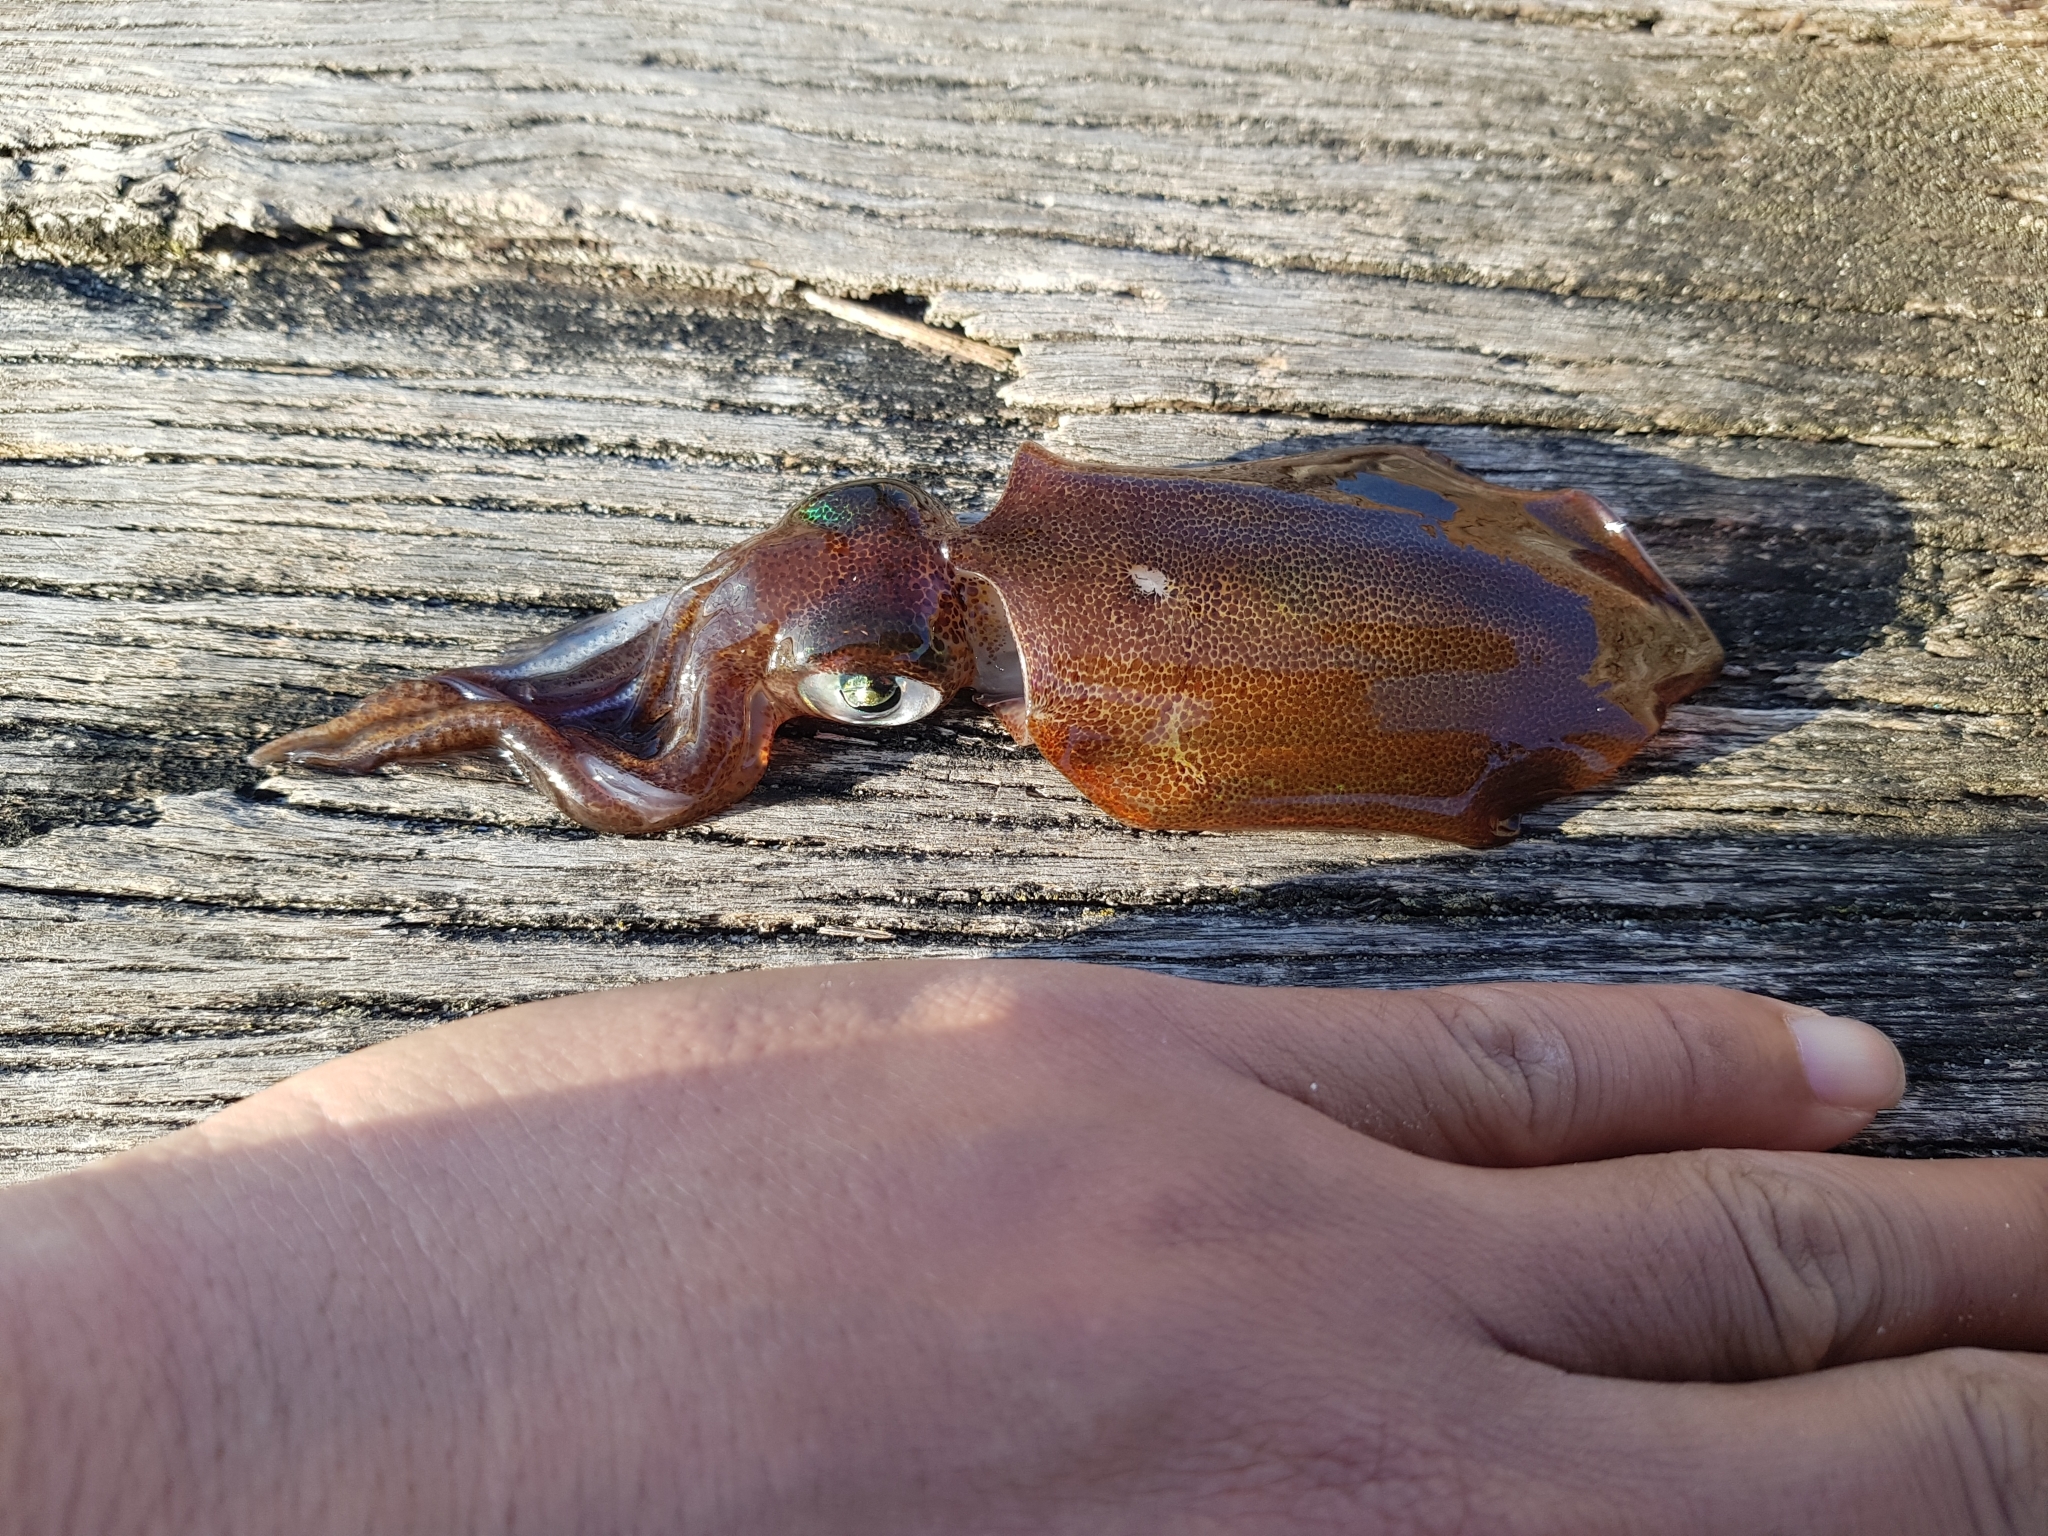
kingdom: Animalia
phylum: Mollusca
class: Cephalopoda
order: Myopsida
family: Loliginidae
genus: Sepioteuthis
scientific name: Sepioteuthis australis
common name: Southern reef squid
